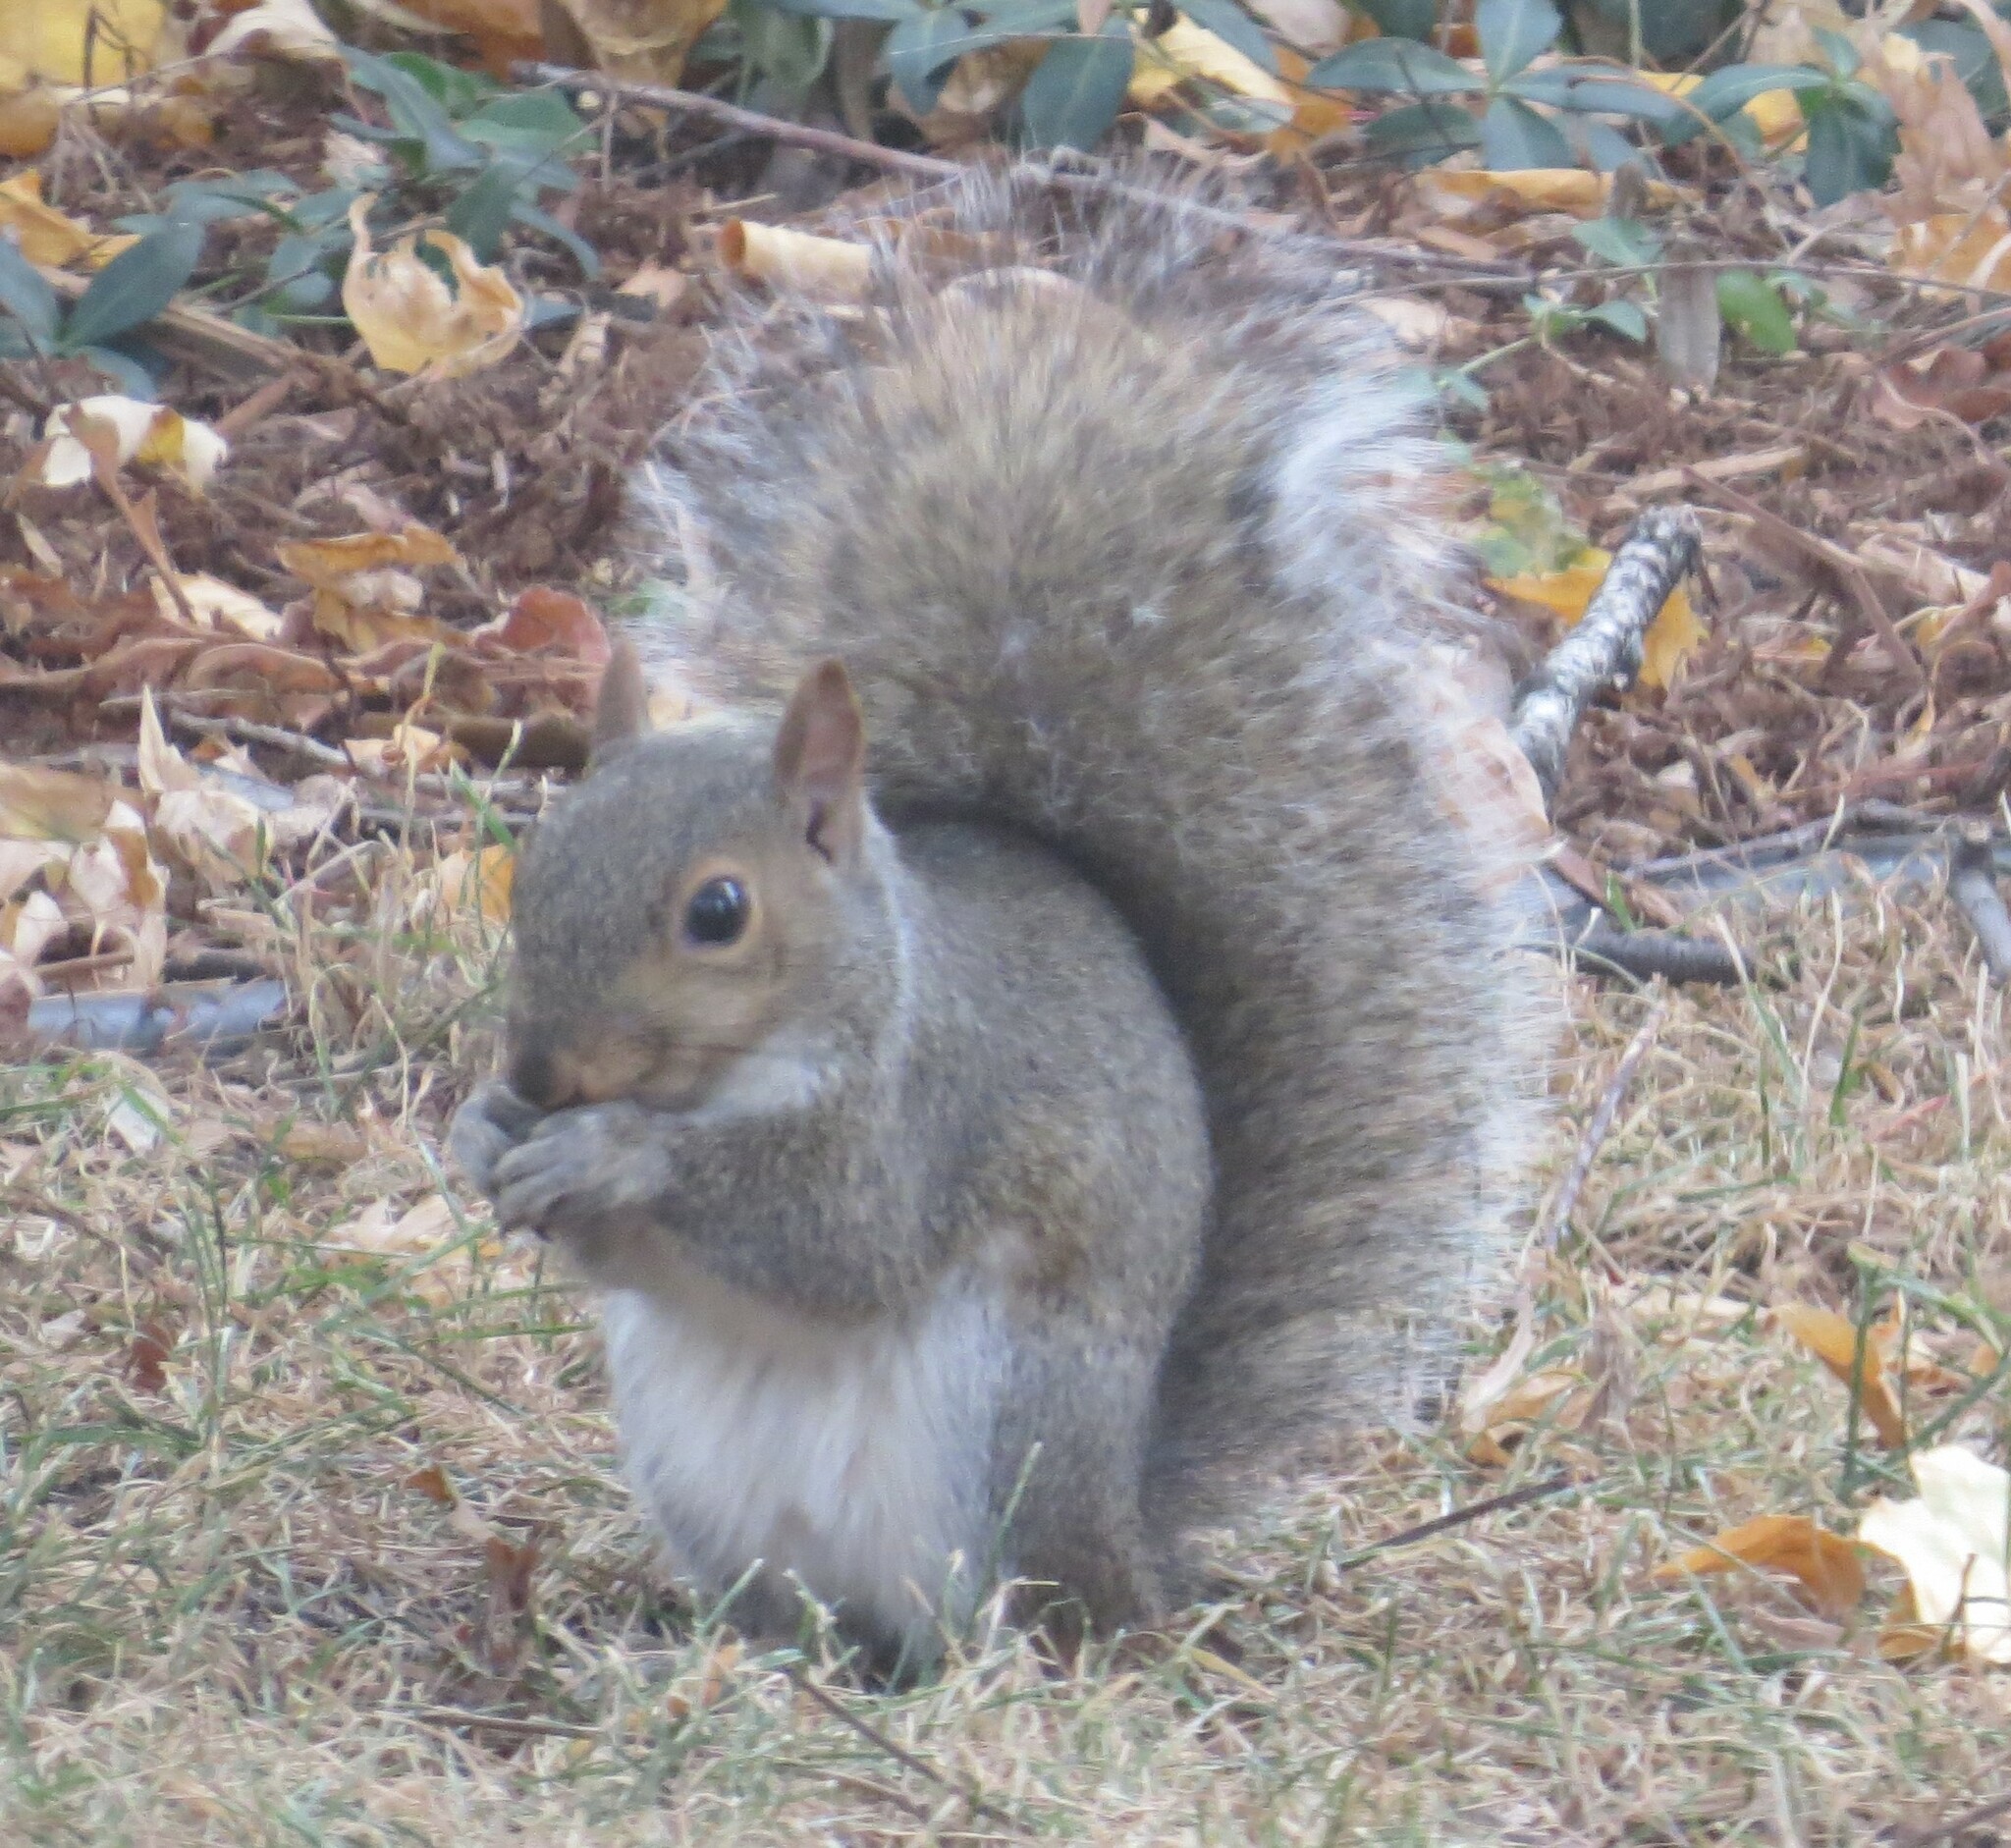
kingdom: Animalia
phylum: Chordata
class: Mammalia
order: Rodentia
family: Sciuridae
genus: Sciurus
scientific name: Sciurus carolinensis
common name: Eastern gray squirrel
